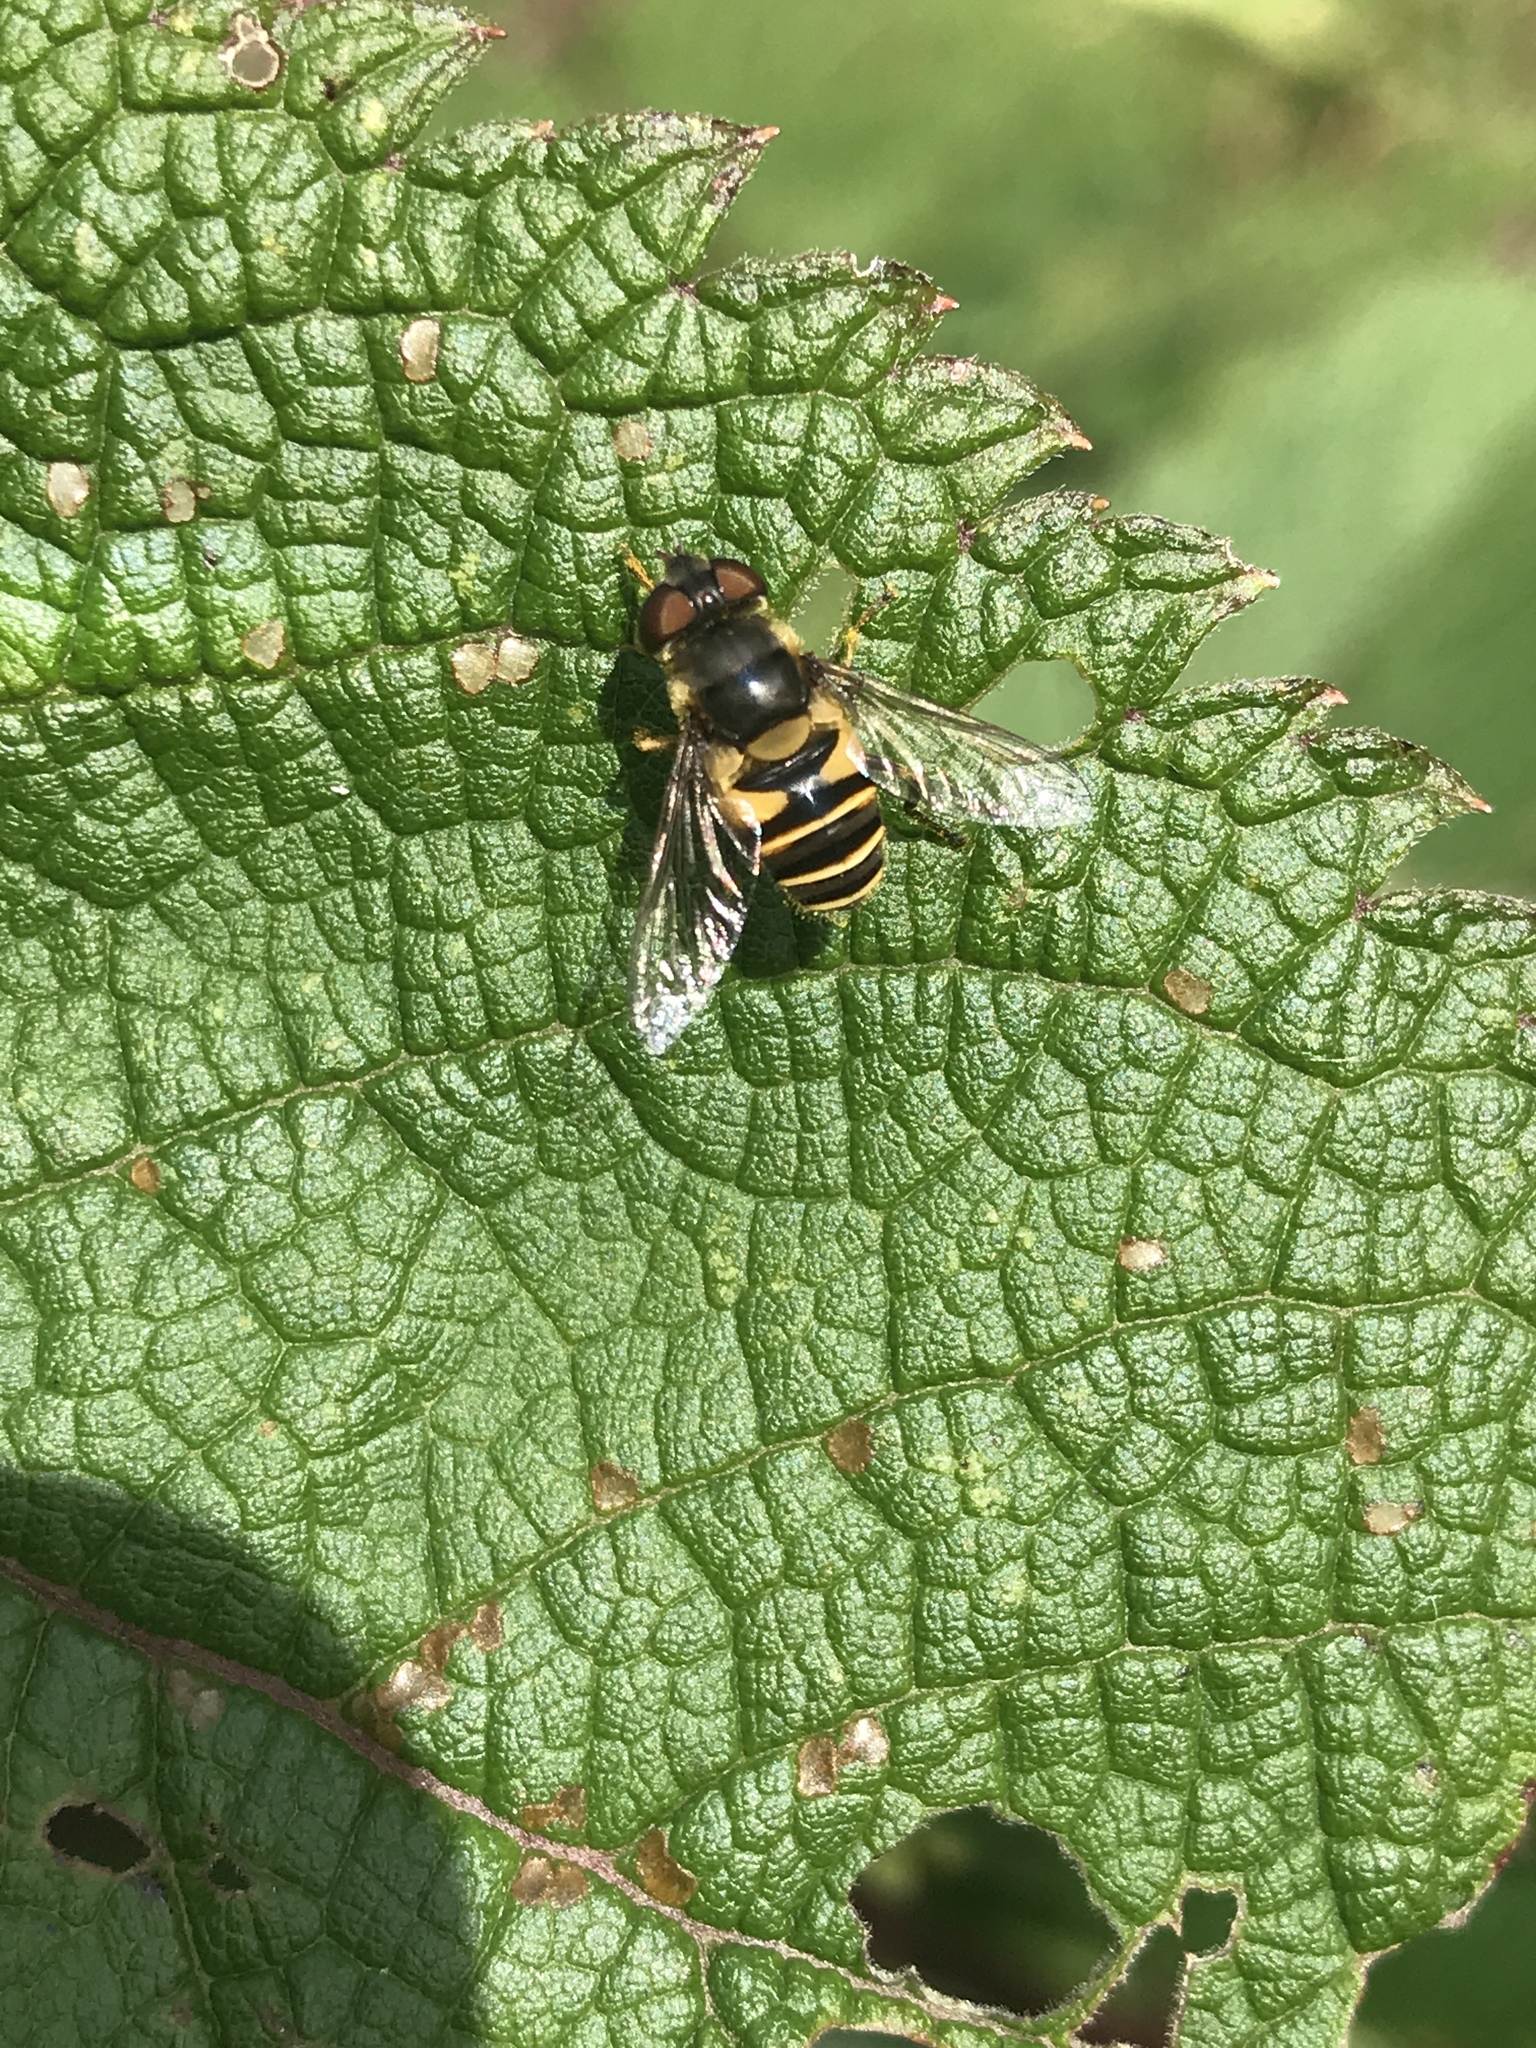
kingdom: Animalia
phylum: Arthropoda
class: Insecta
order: Diptera
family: Syrphidae
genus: Eristalis
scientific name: Eristalis transversa
